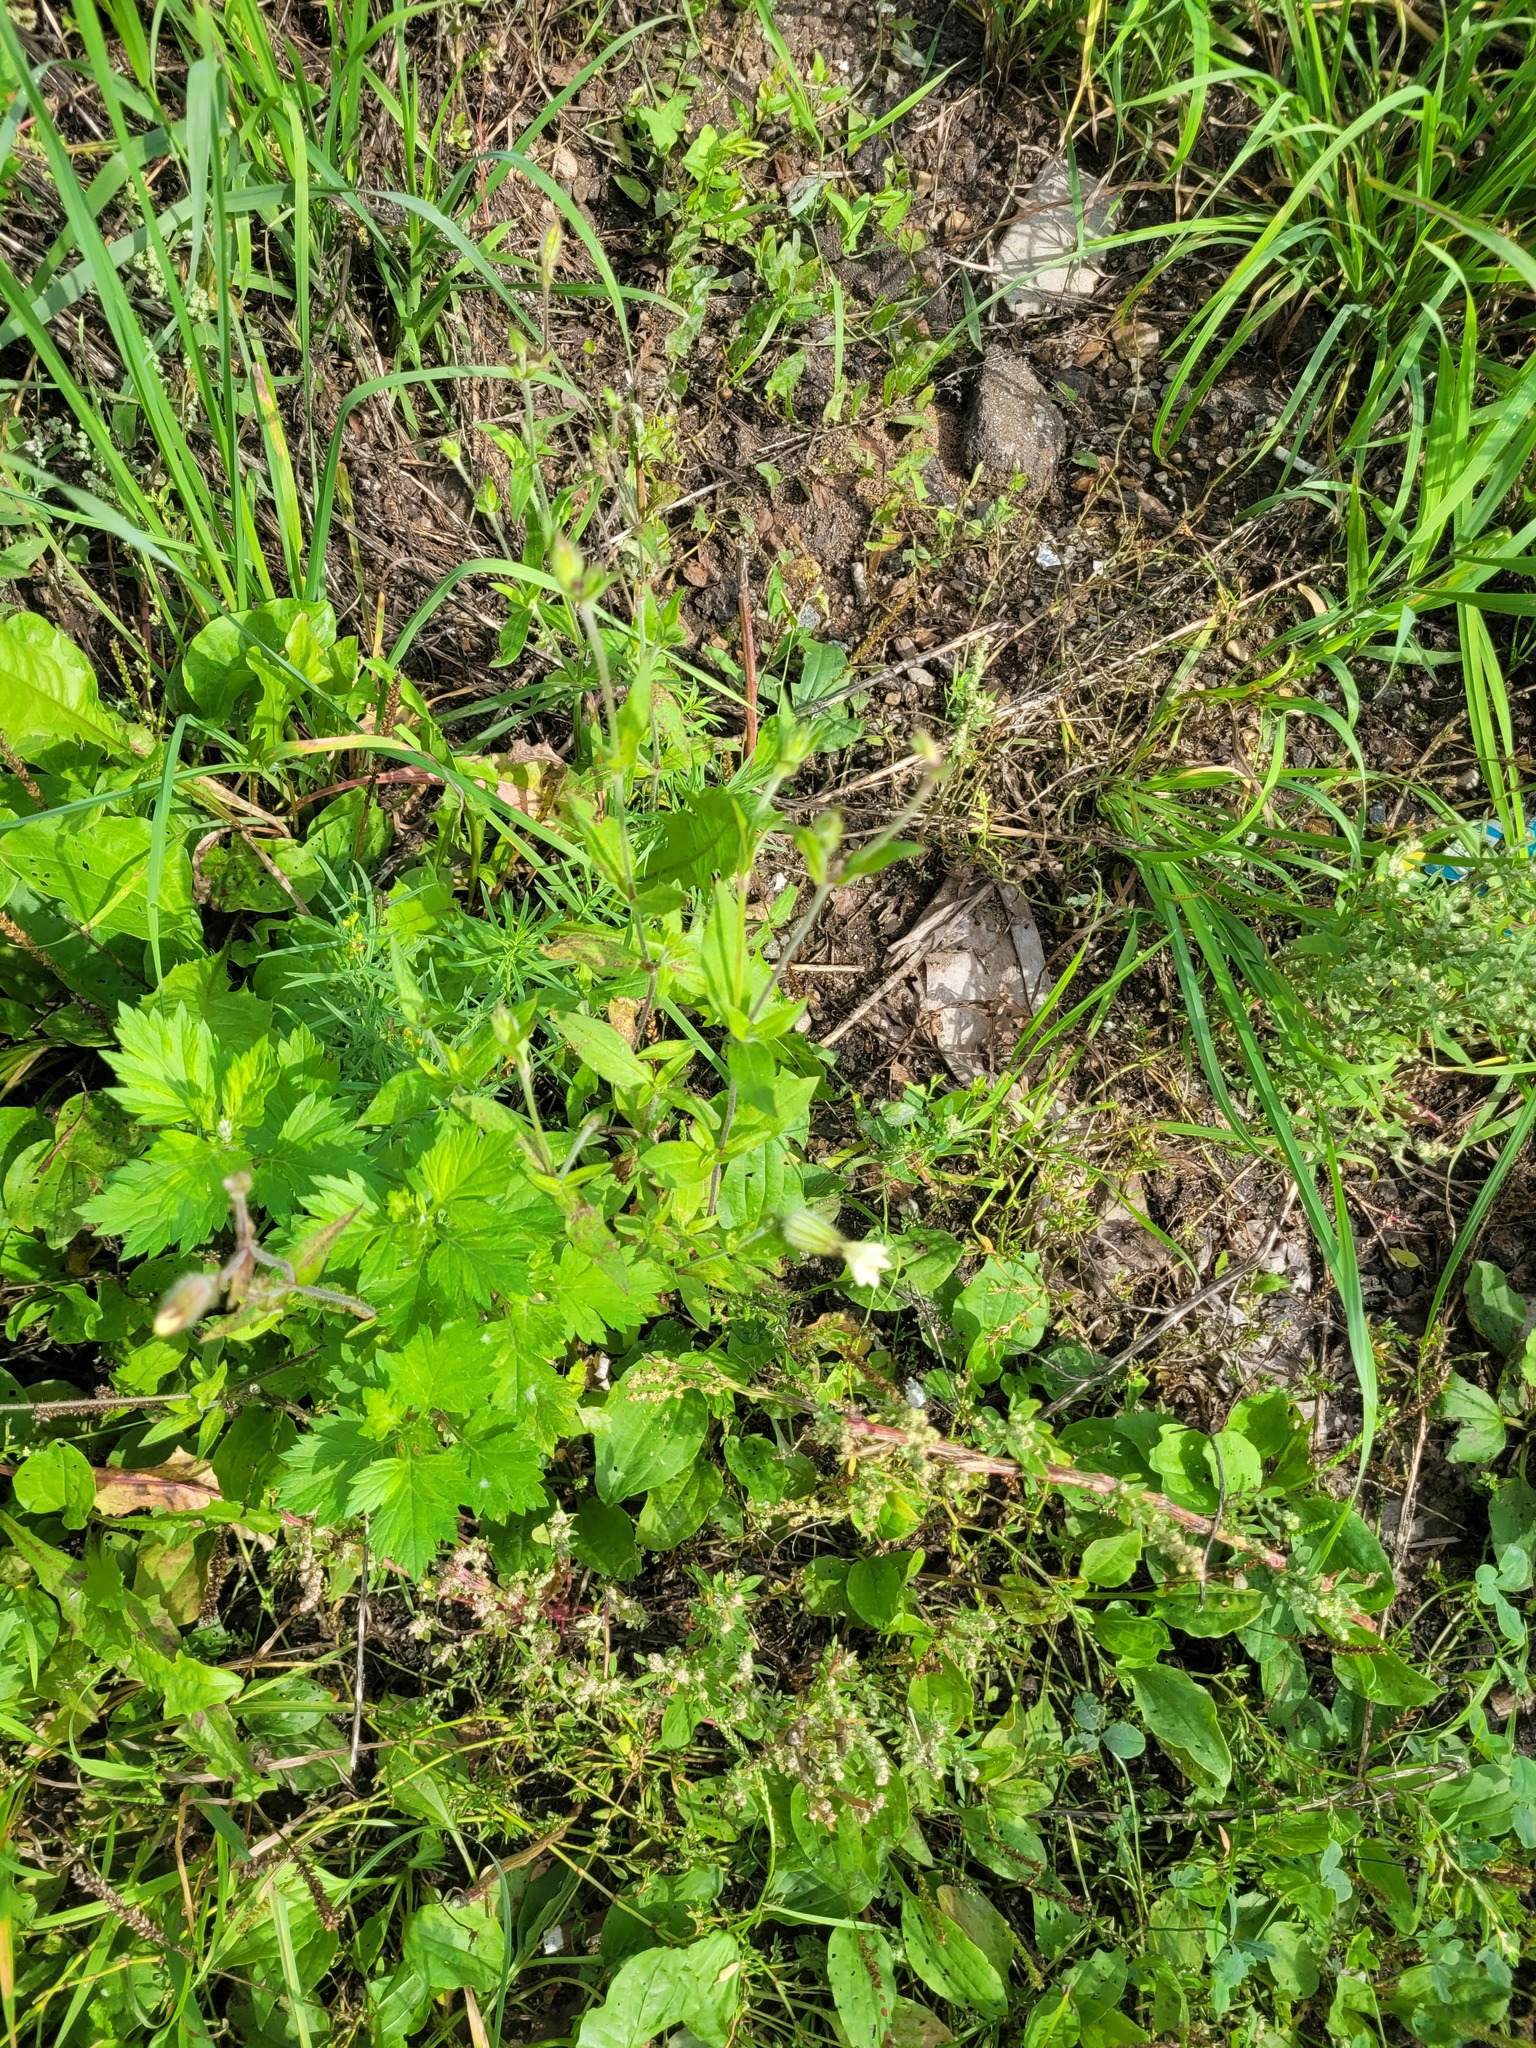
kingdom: Plantae
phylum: Tracheophyta
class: Magnoliopsida
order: Caryophyllales
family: Caryophyllaceae
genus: Silene
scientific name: Silene latifolia
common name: White campion
